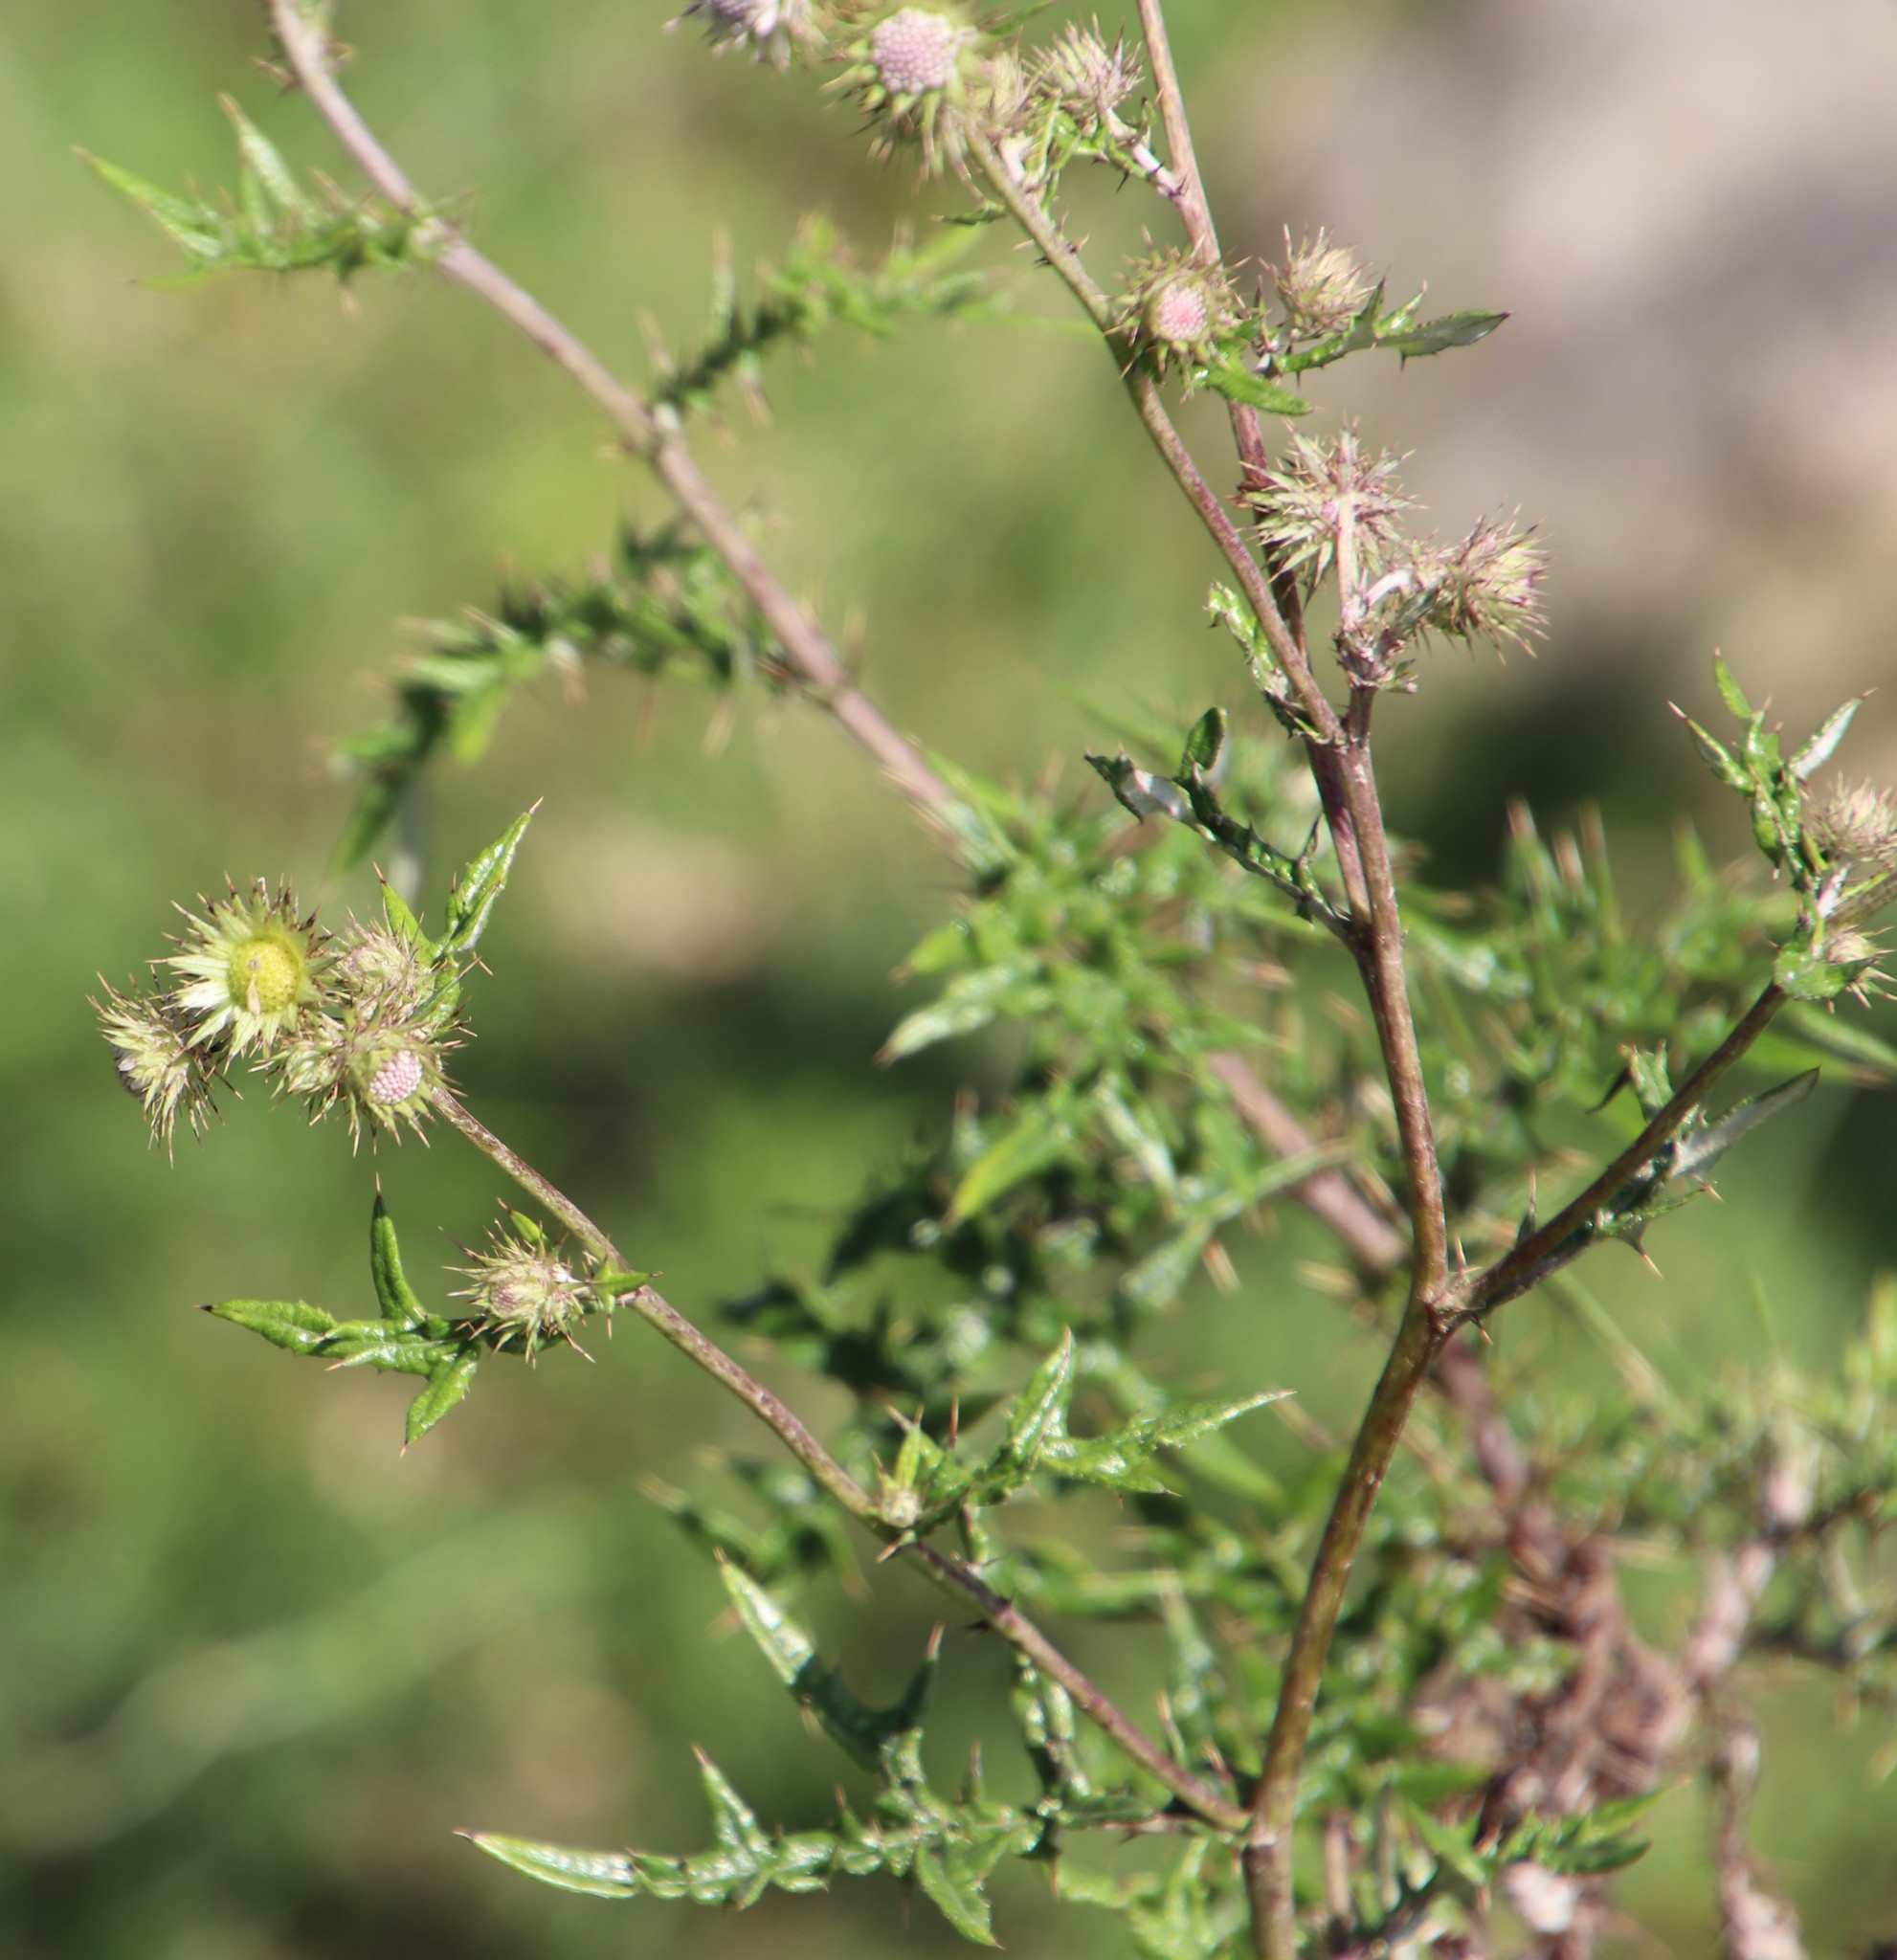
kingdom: Plantae
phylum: Tracheophyta
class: Magnoliopsida
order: Asterales
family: Asteraceae
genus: Berkheya
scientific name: Berkheya bipinnatifida
